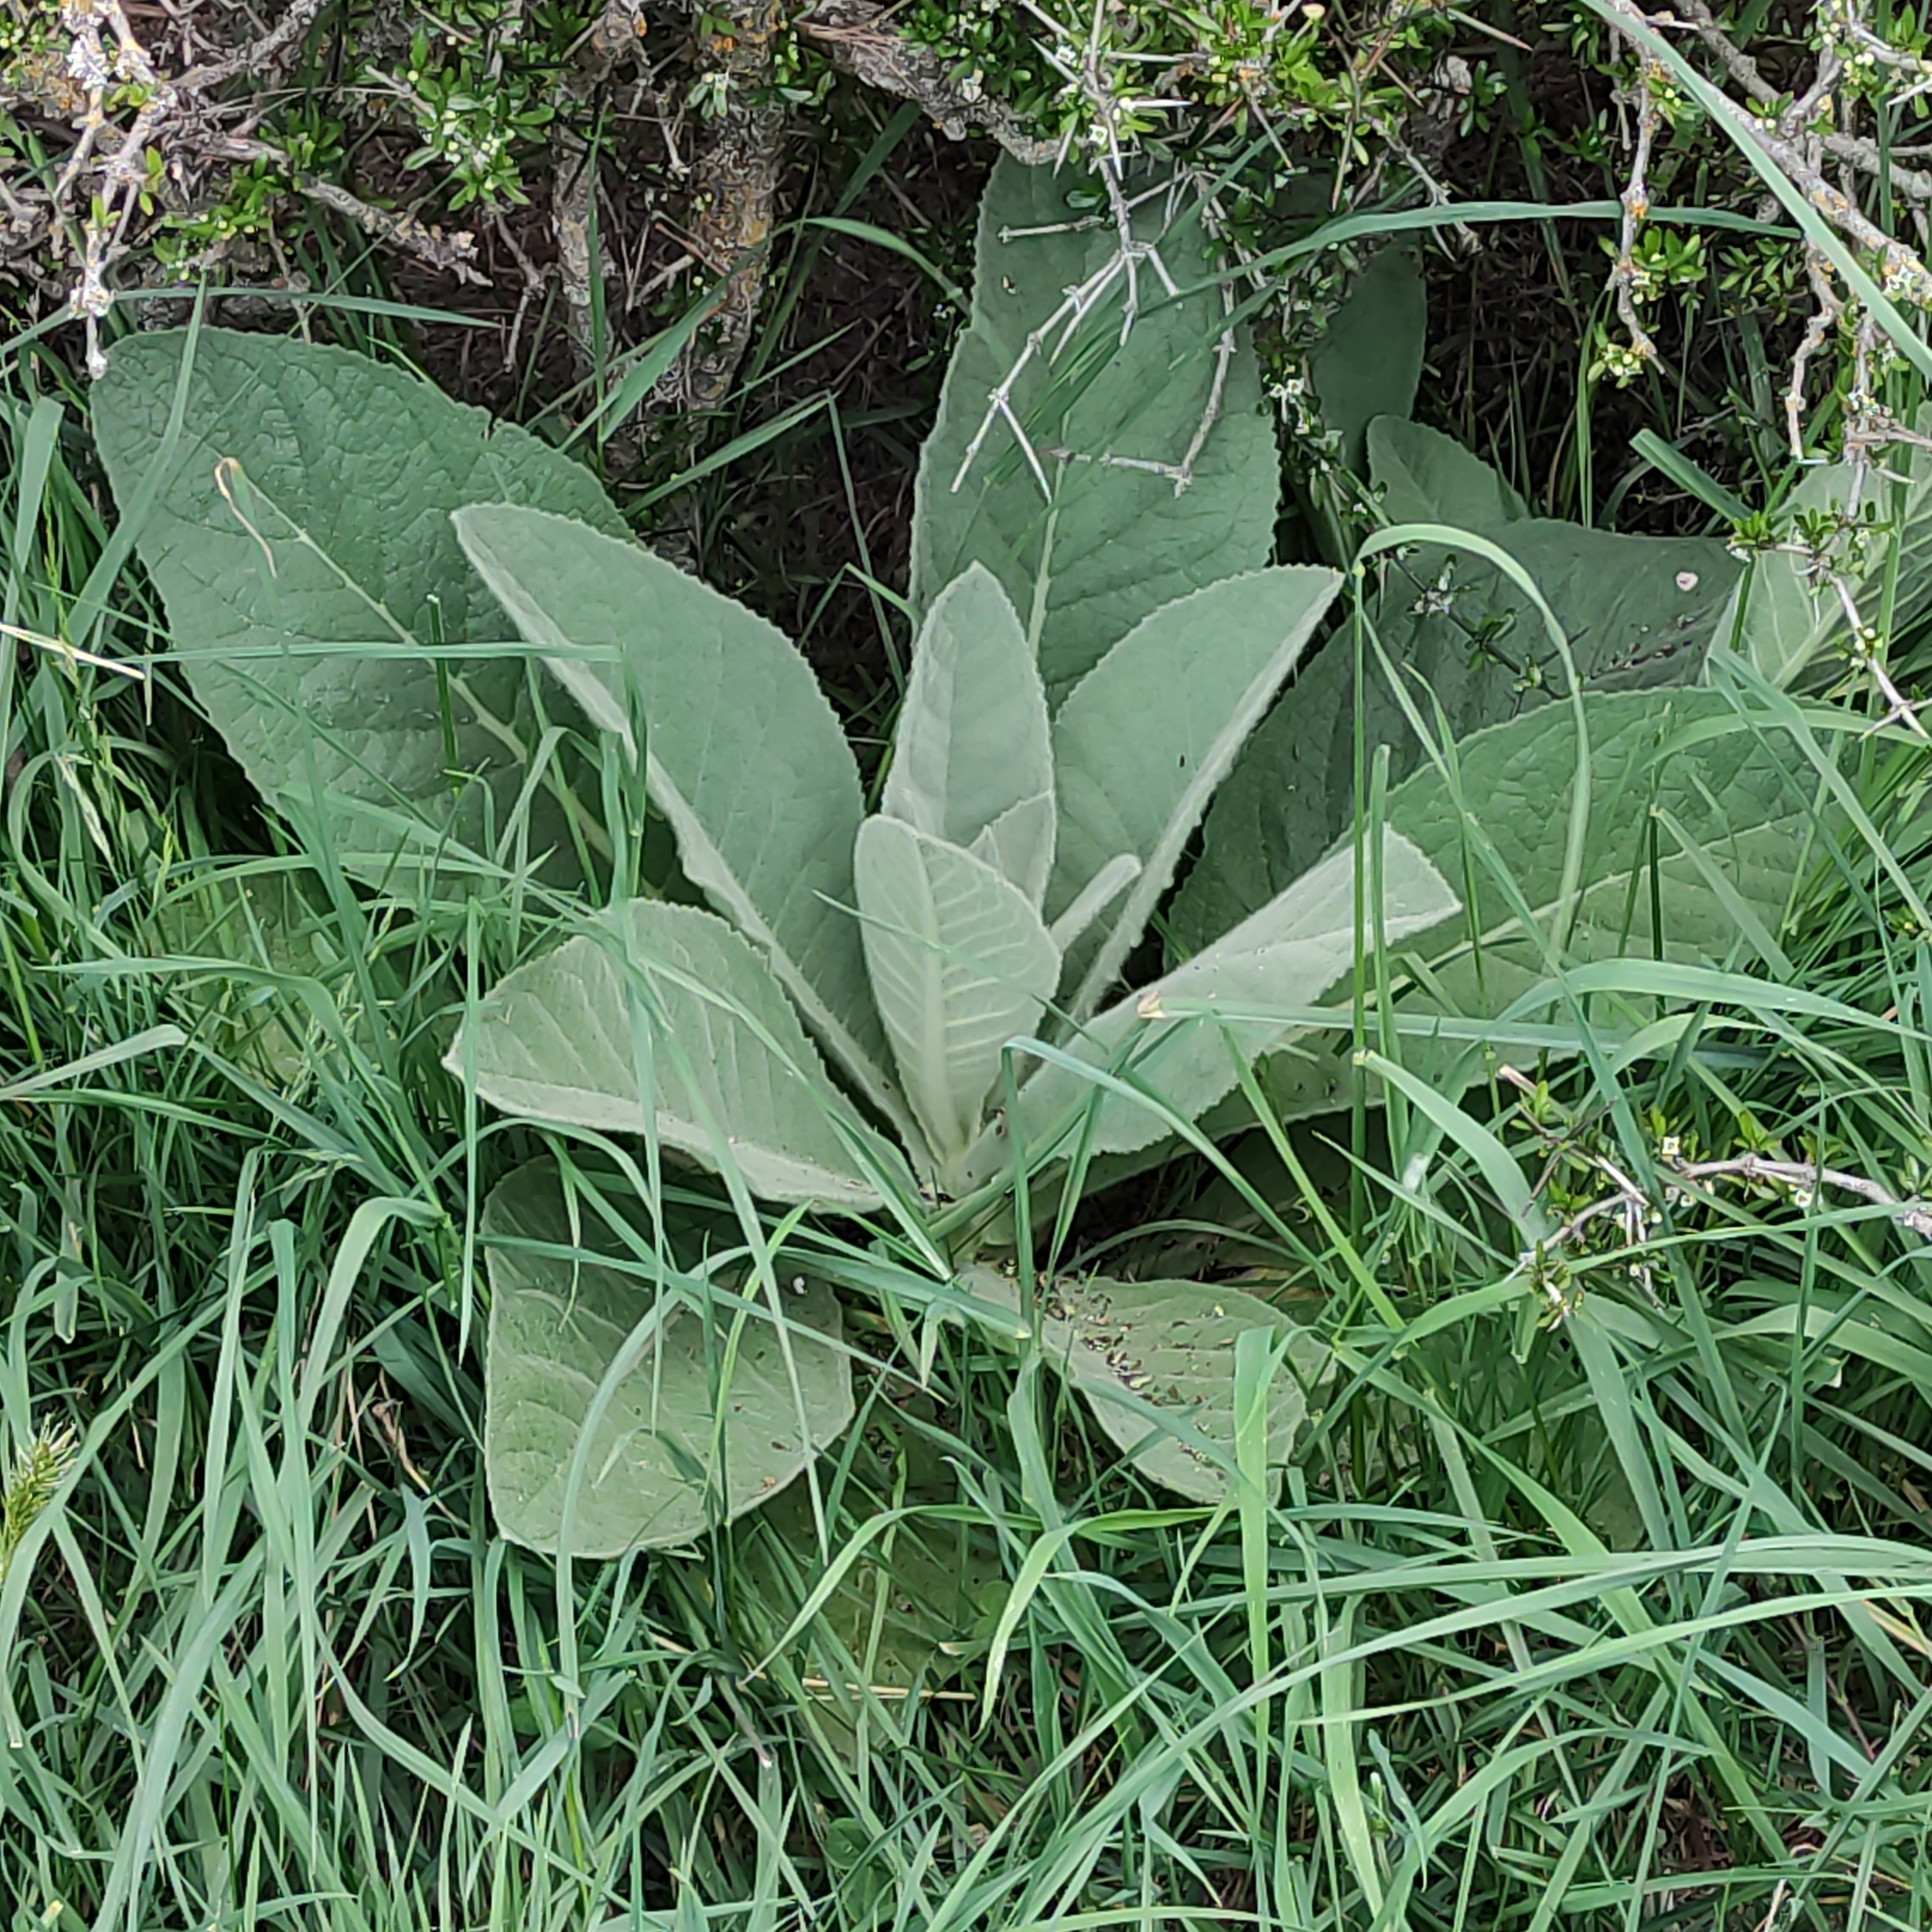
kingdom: Plantae
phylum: Tracheophyta
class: Magnoliopsida
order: Lamiales
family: Scrophulariaceae
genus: Verbascum
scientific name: Verbascum thapsus
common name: Common mullein
